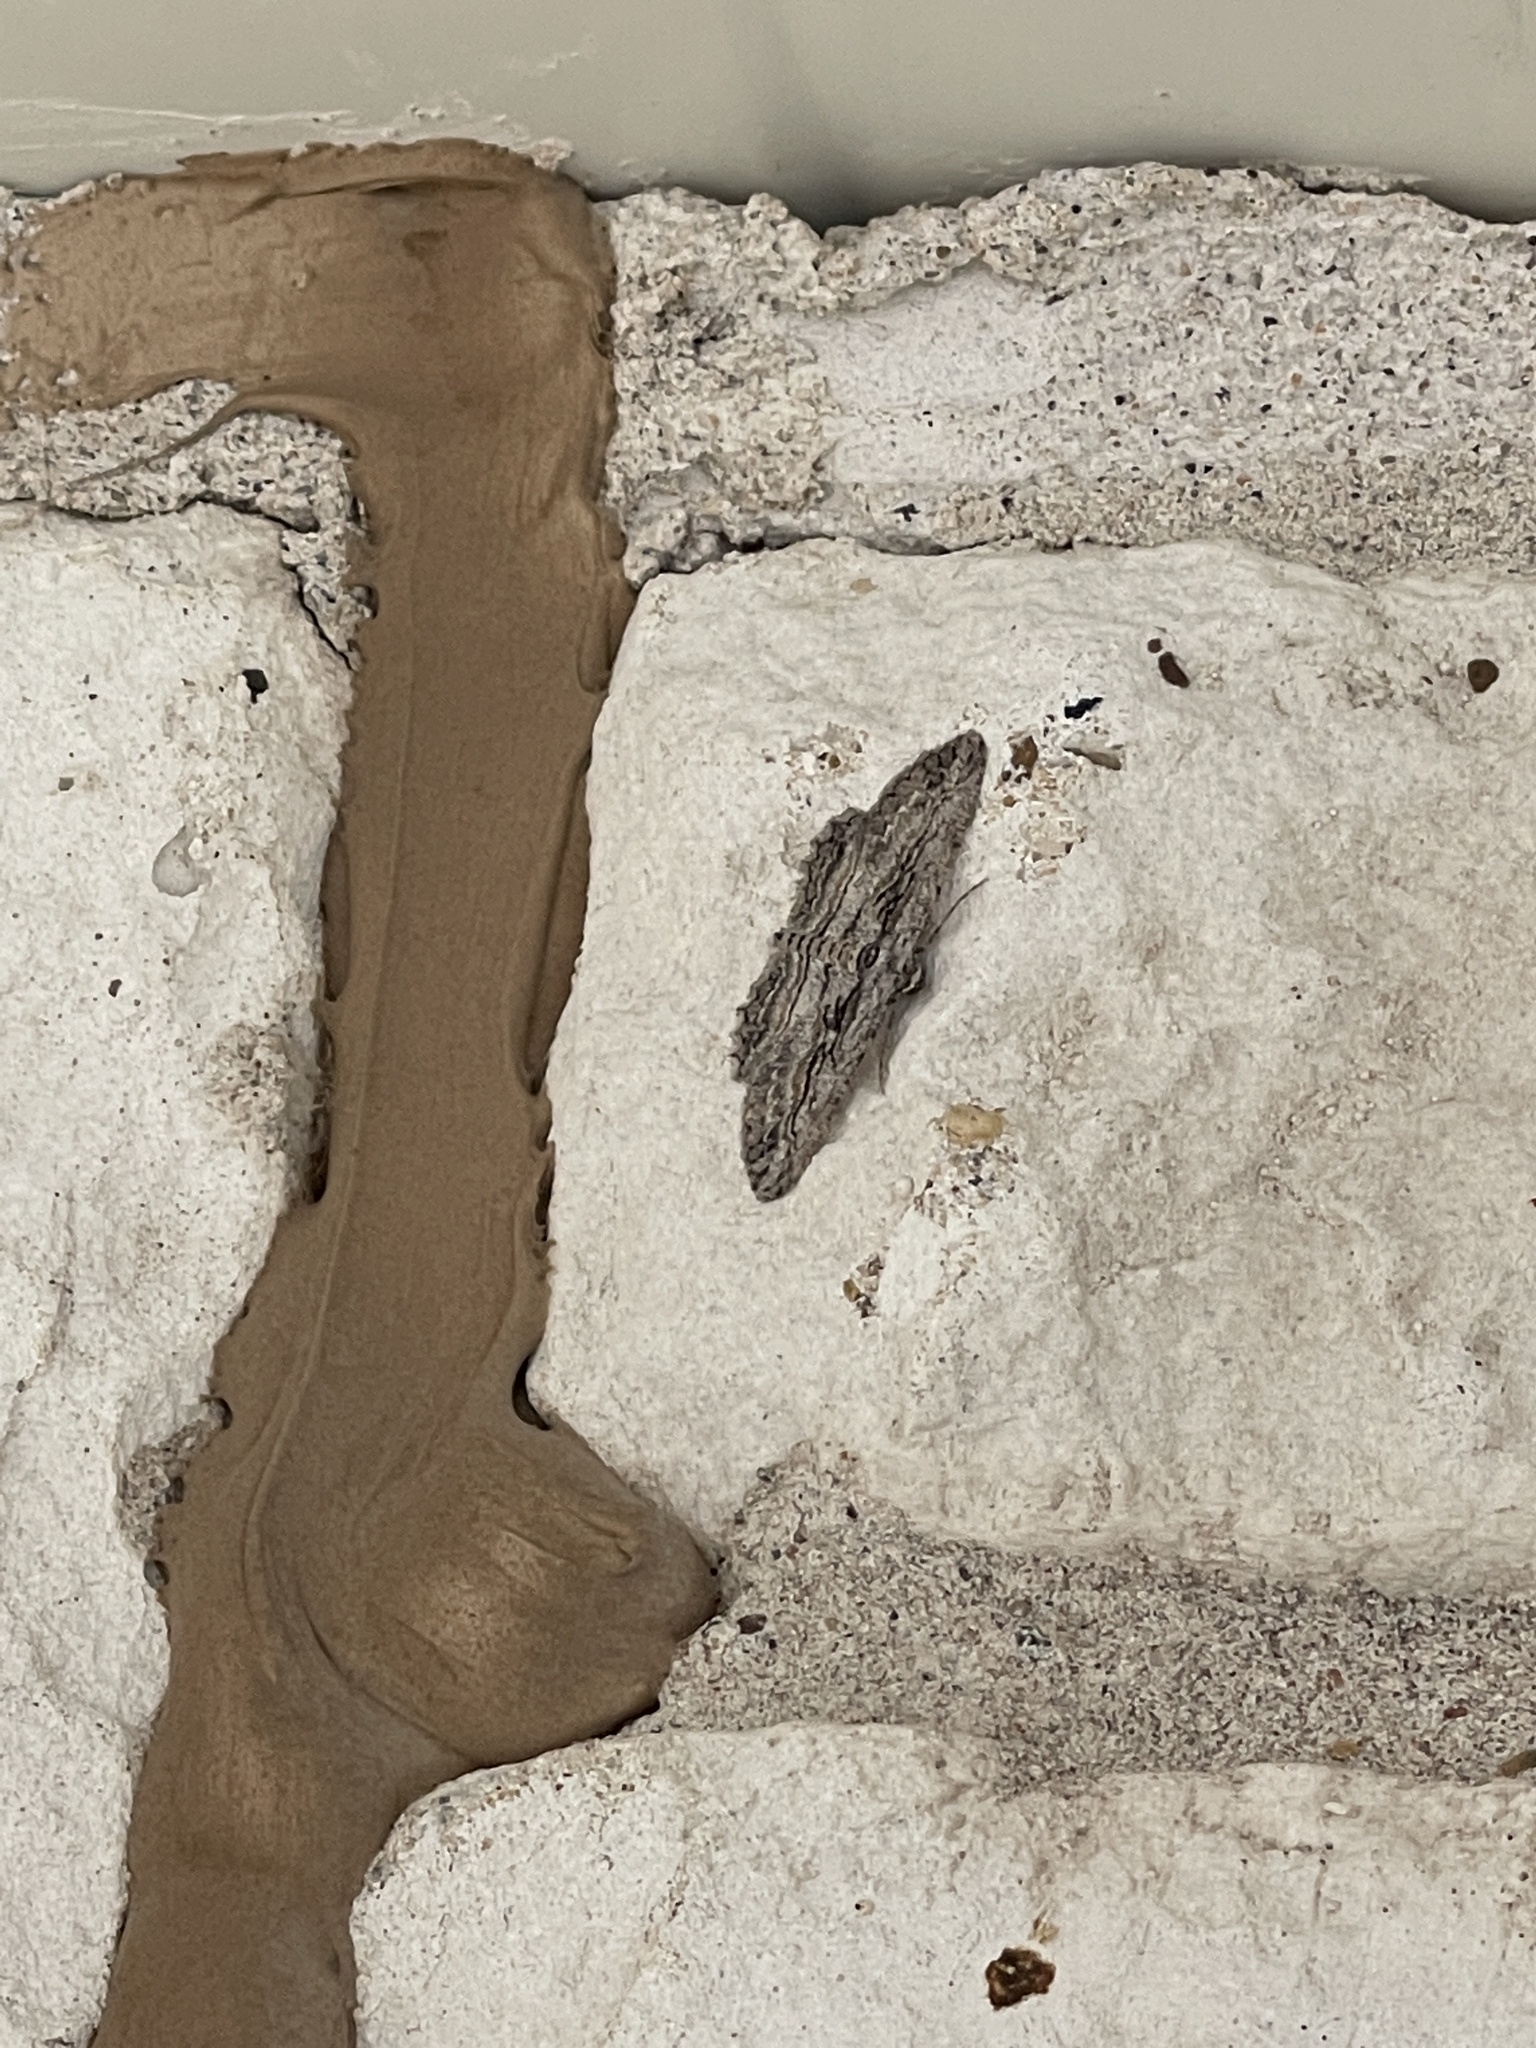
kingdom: Animalia
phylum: Arthropoda
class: Insecta
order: Lepidoptera
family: Geometridae
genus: Glena
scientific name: Glena quinquelinearia
